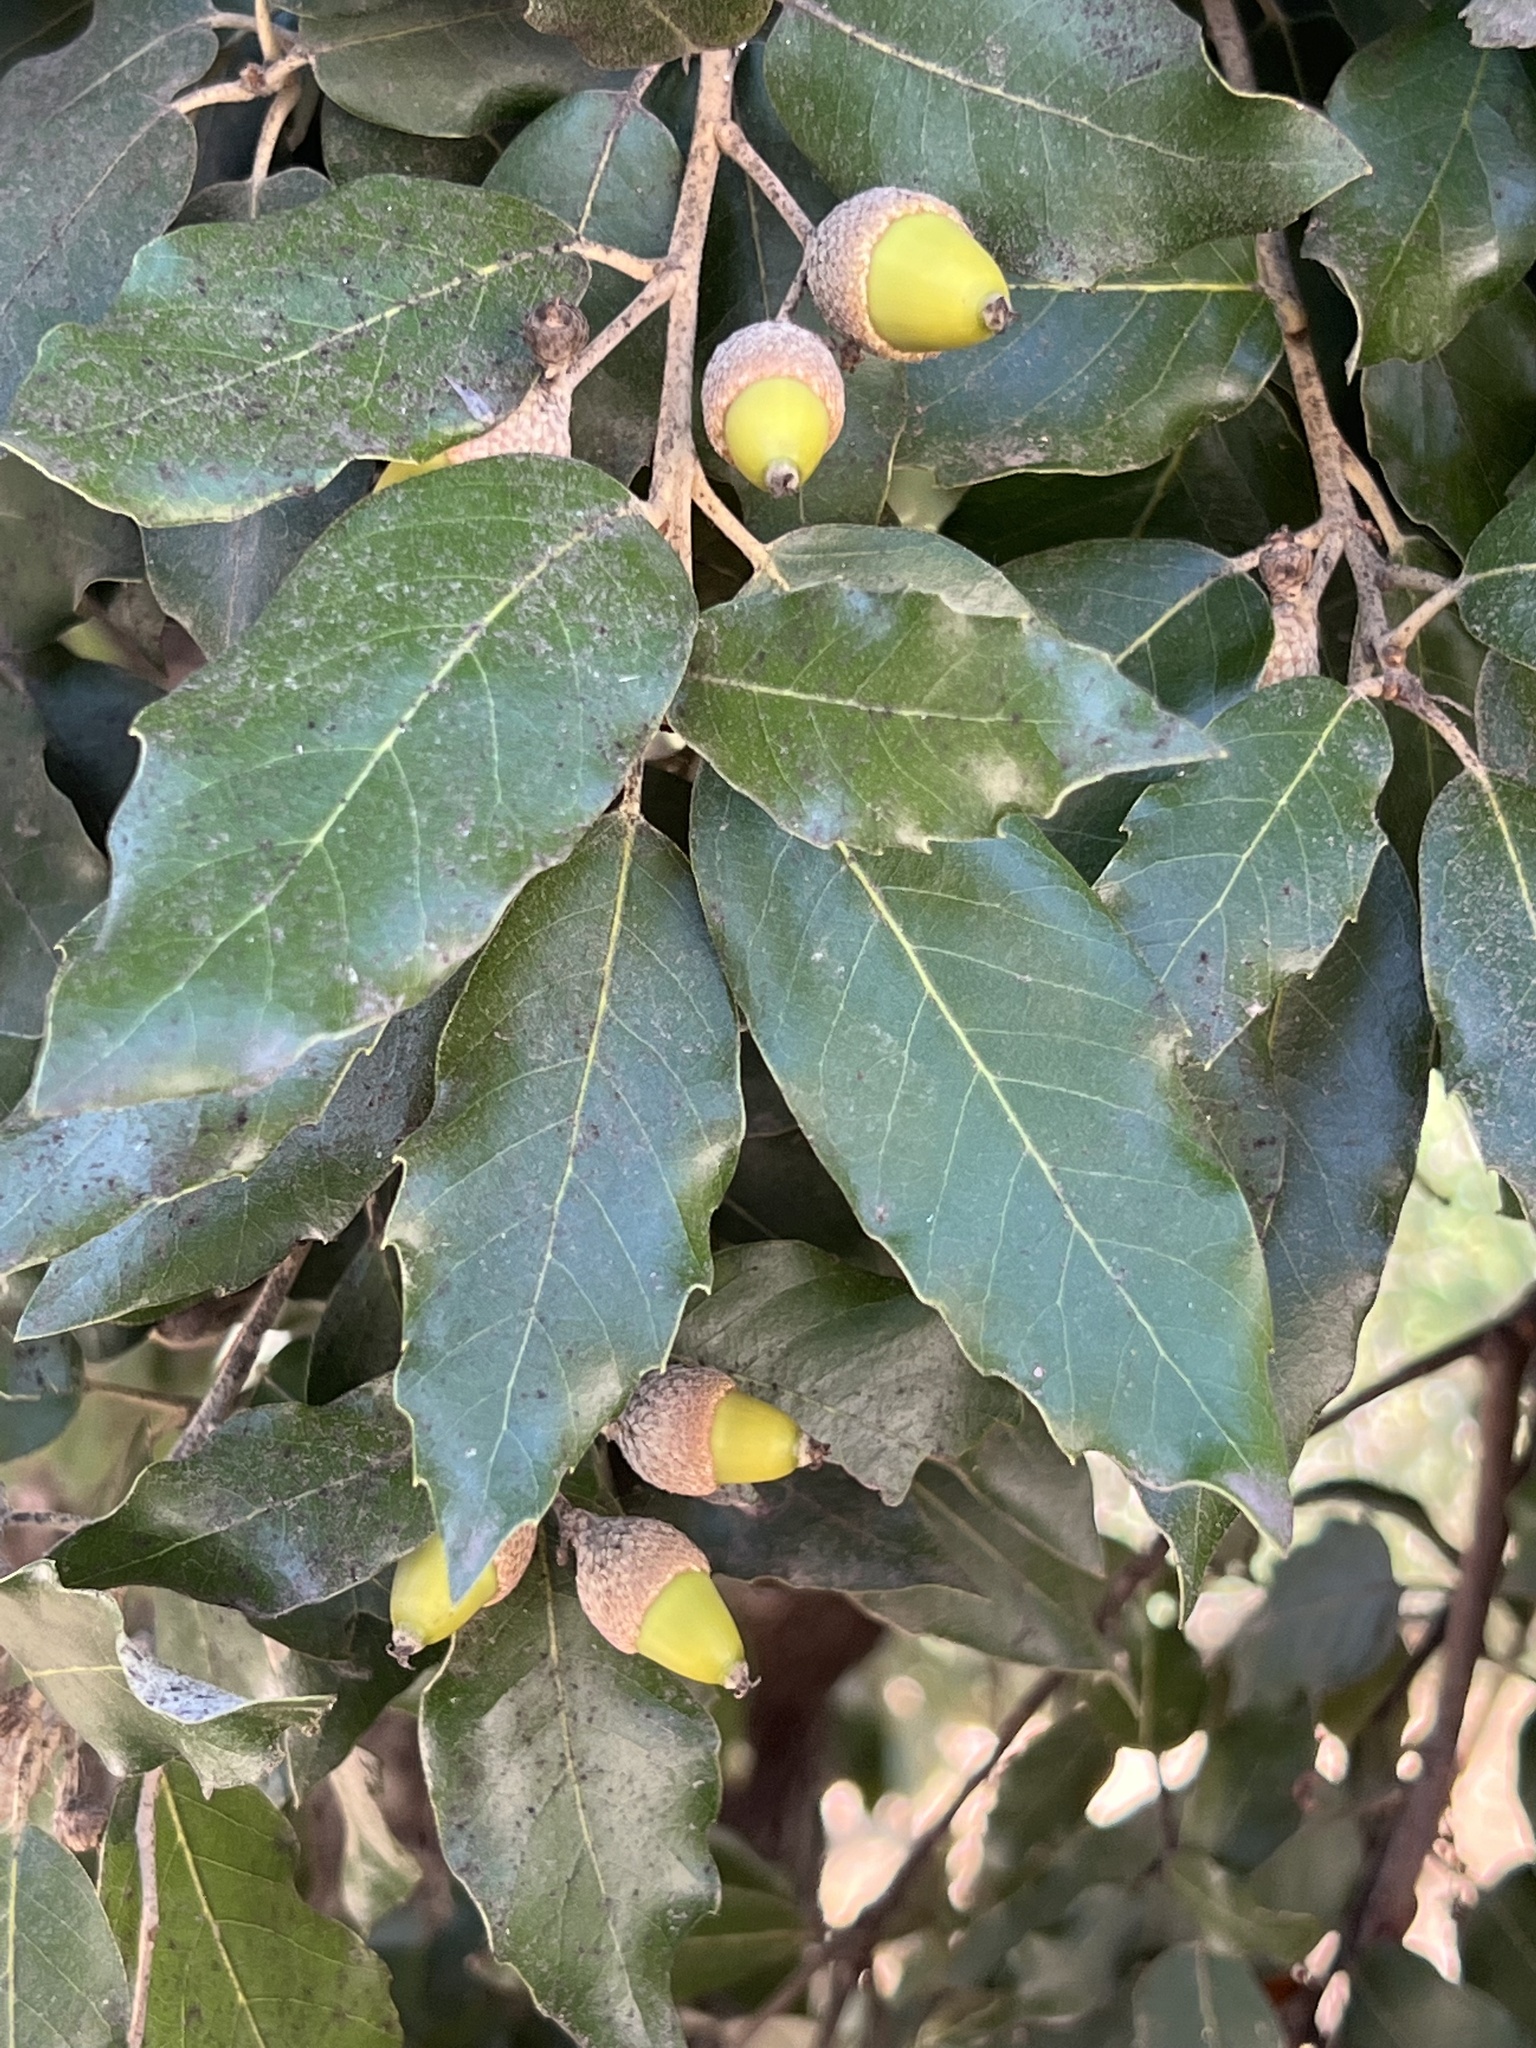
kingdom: Plantae
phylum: Tracheophyta
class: Magnoliopsida
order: Fagales
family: Fagaceae
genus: Quercus
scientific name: Quercus ilex
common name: Evergreen oak
